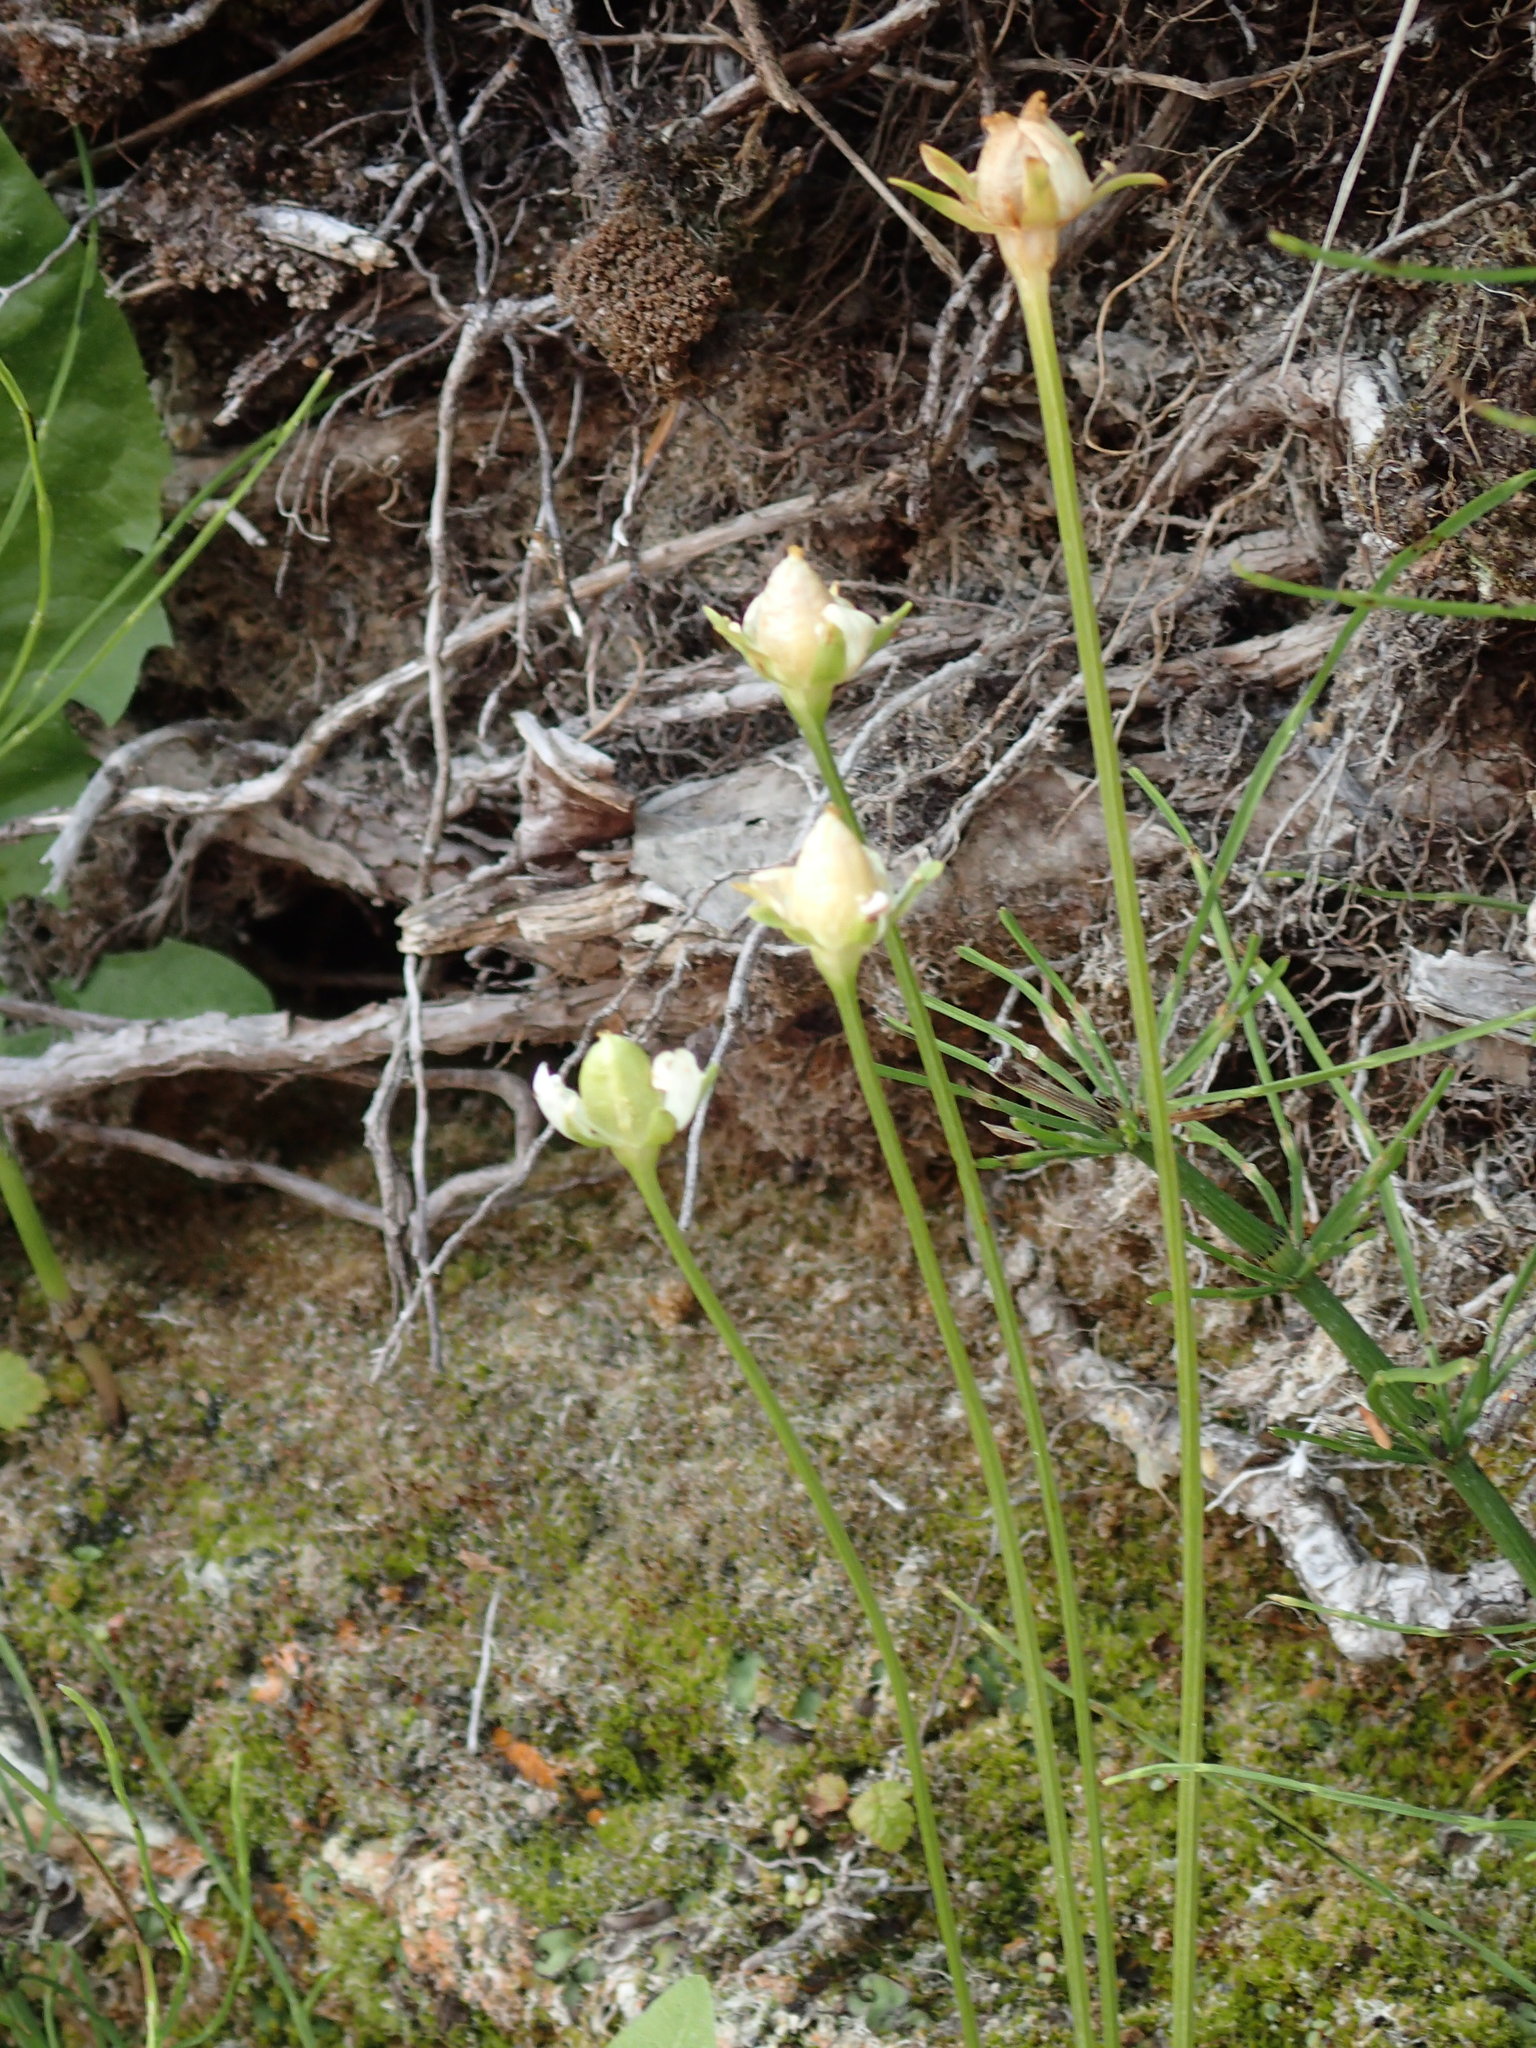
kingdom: Plantae
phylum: Tracheophyta
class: Magnoliopsida
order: Celastrales
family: Parnassiaceae
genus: Parnassia
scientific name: Parnassia palustris
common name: Grass-of-parnassus
